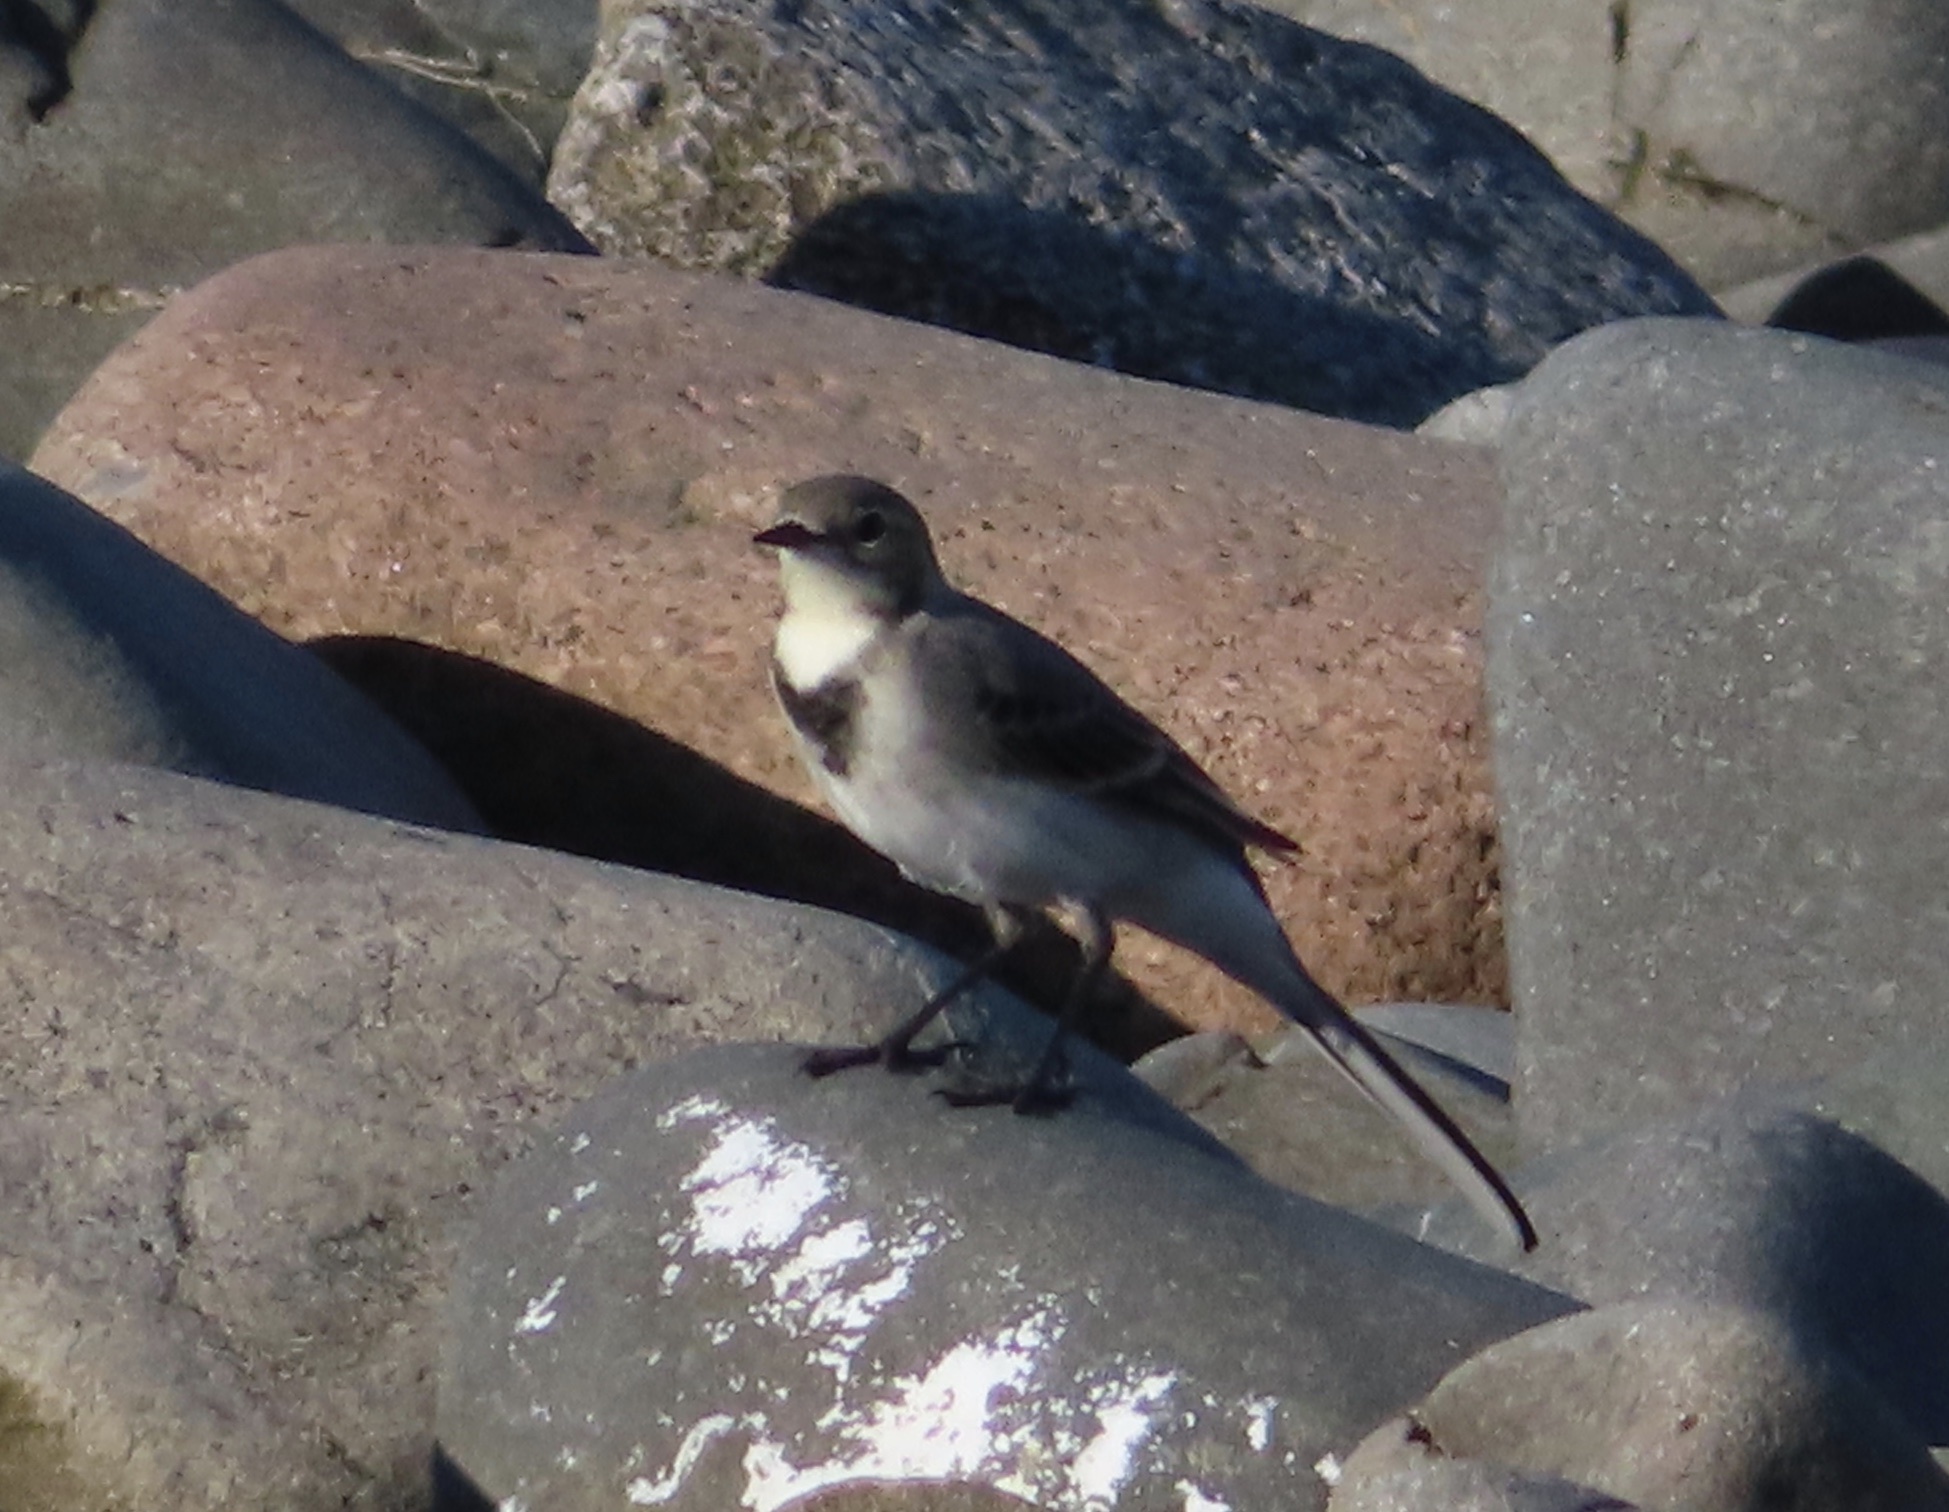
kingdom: Animalia
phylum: Chordata
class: Aves
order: Passeriformes
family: Motacillidae
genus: Motacilla
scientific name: Motacilla alba
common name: White wagtail
